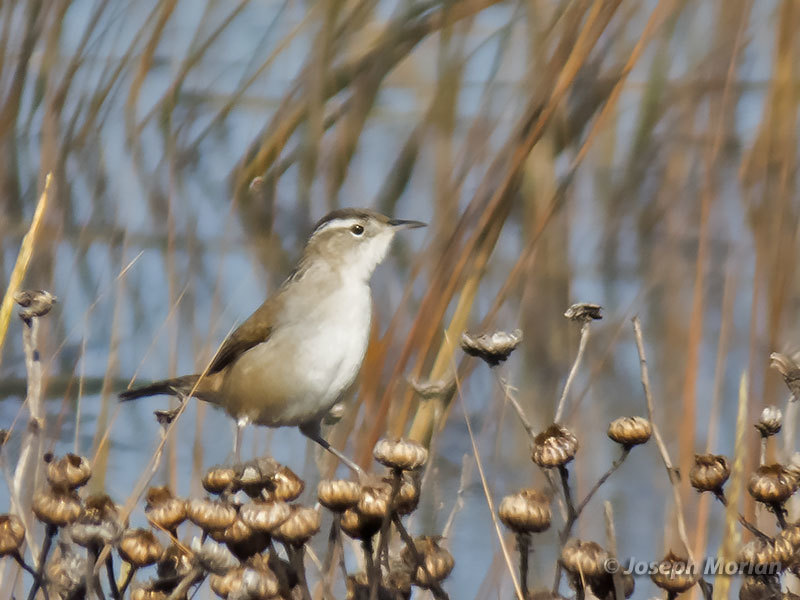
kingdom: Animalia
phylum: Chordata
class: Aves
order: Passeriformes
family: Troglodytidae
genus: Cistothorus
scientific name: Cistothorus palustris
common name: Marsh wren
